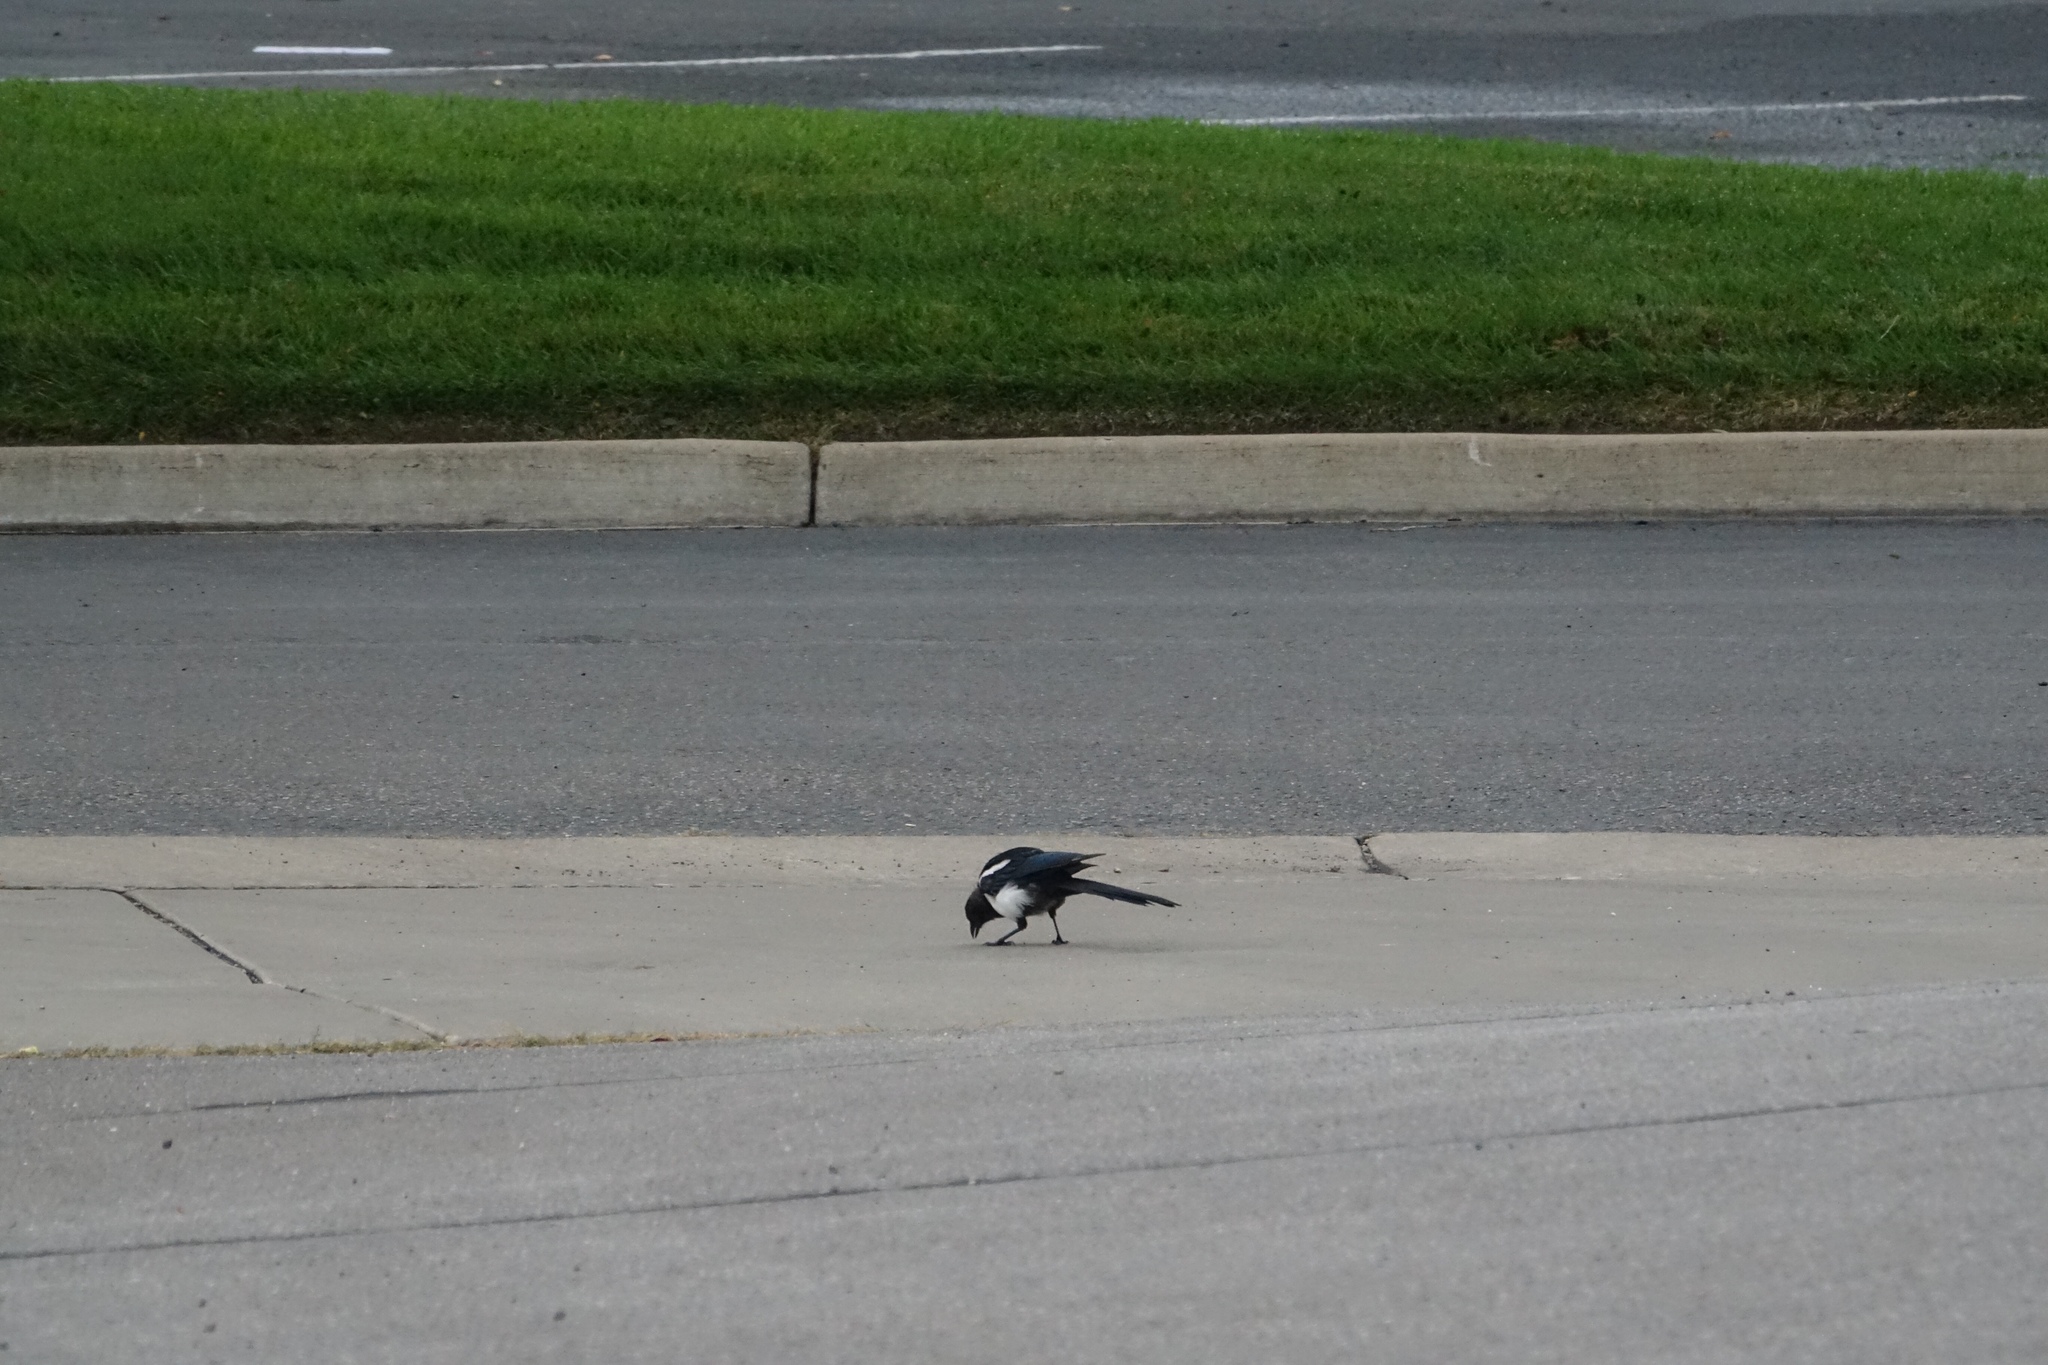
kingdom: Animalia
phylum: Chordata
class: Aves
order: Passeriformes
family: Corvidae
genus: Pica
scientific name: Pica hudsonia
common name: Black-billed magpie
